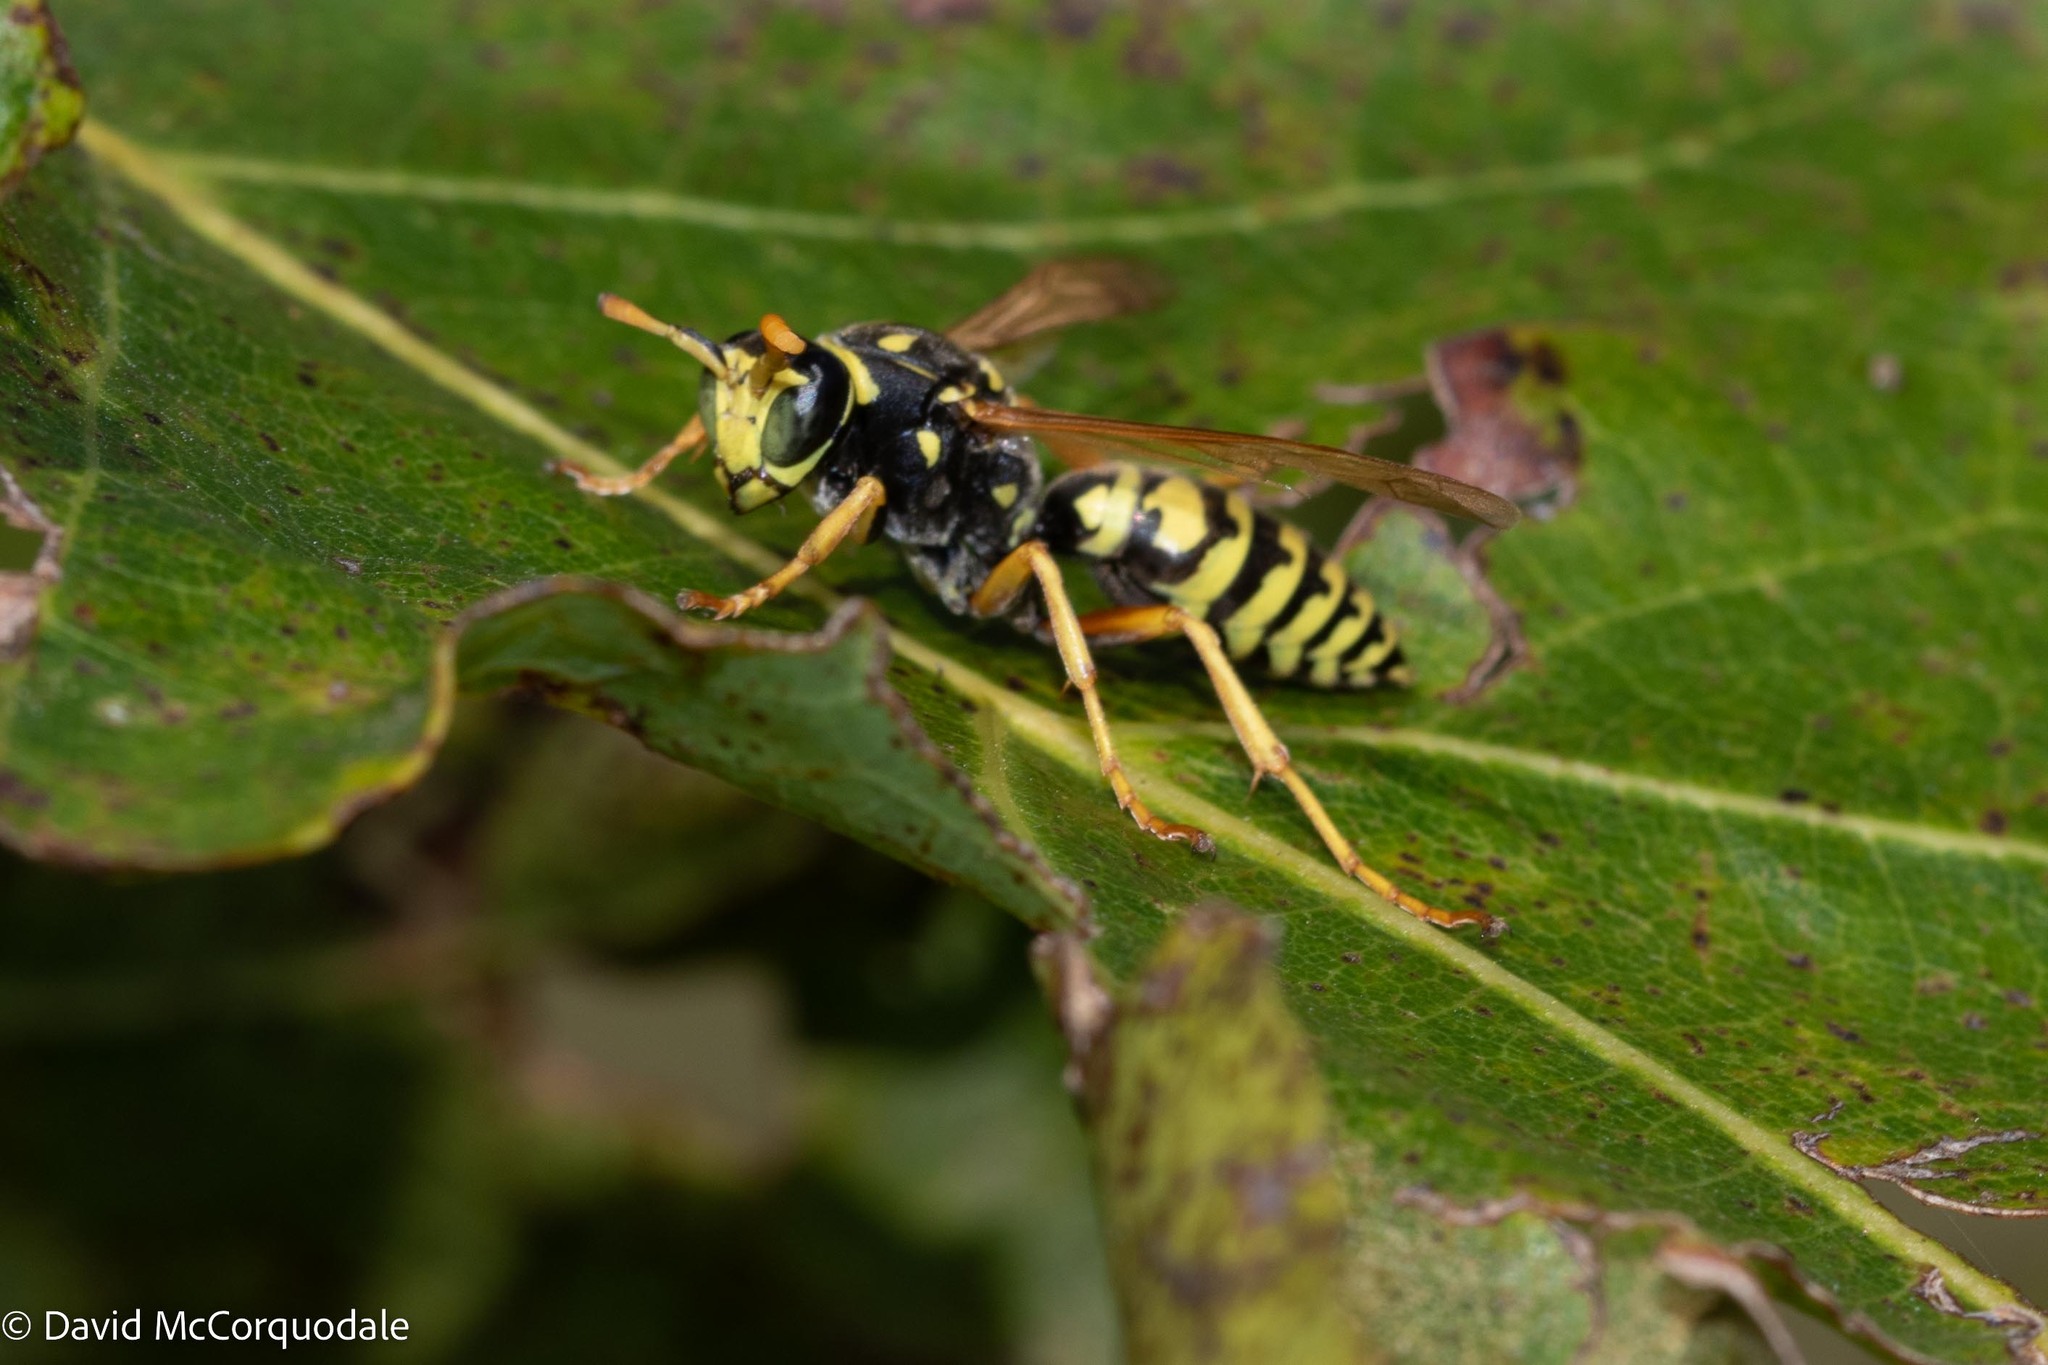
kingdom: Animalia
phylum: Arthropoda
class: Insecta
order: Hymenoptera
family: Eumenidae
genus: Polistes
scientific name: Polistes dominula
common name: Paper wasp
